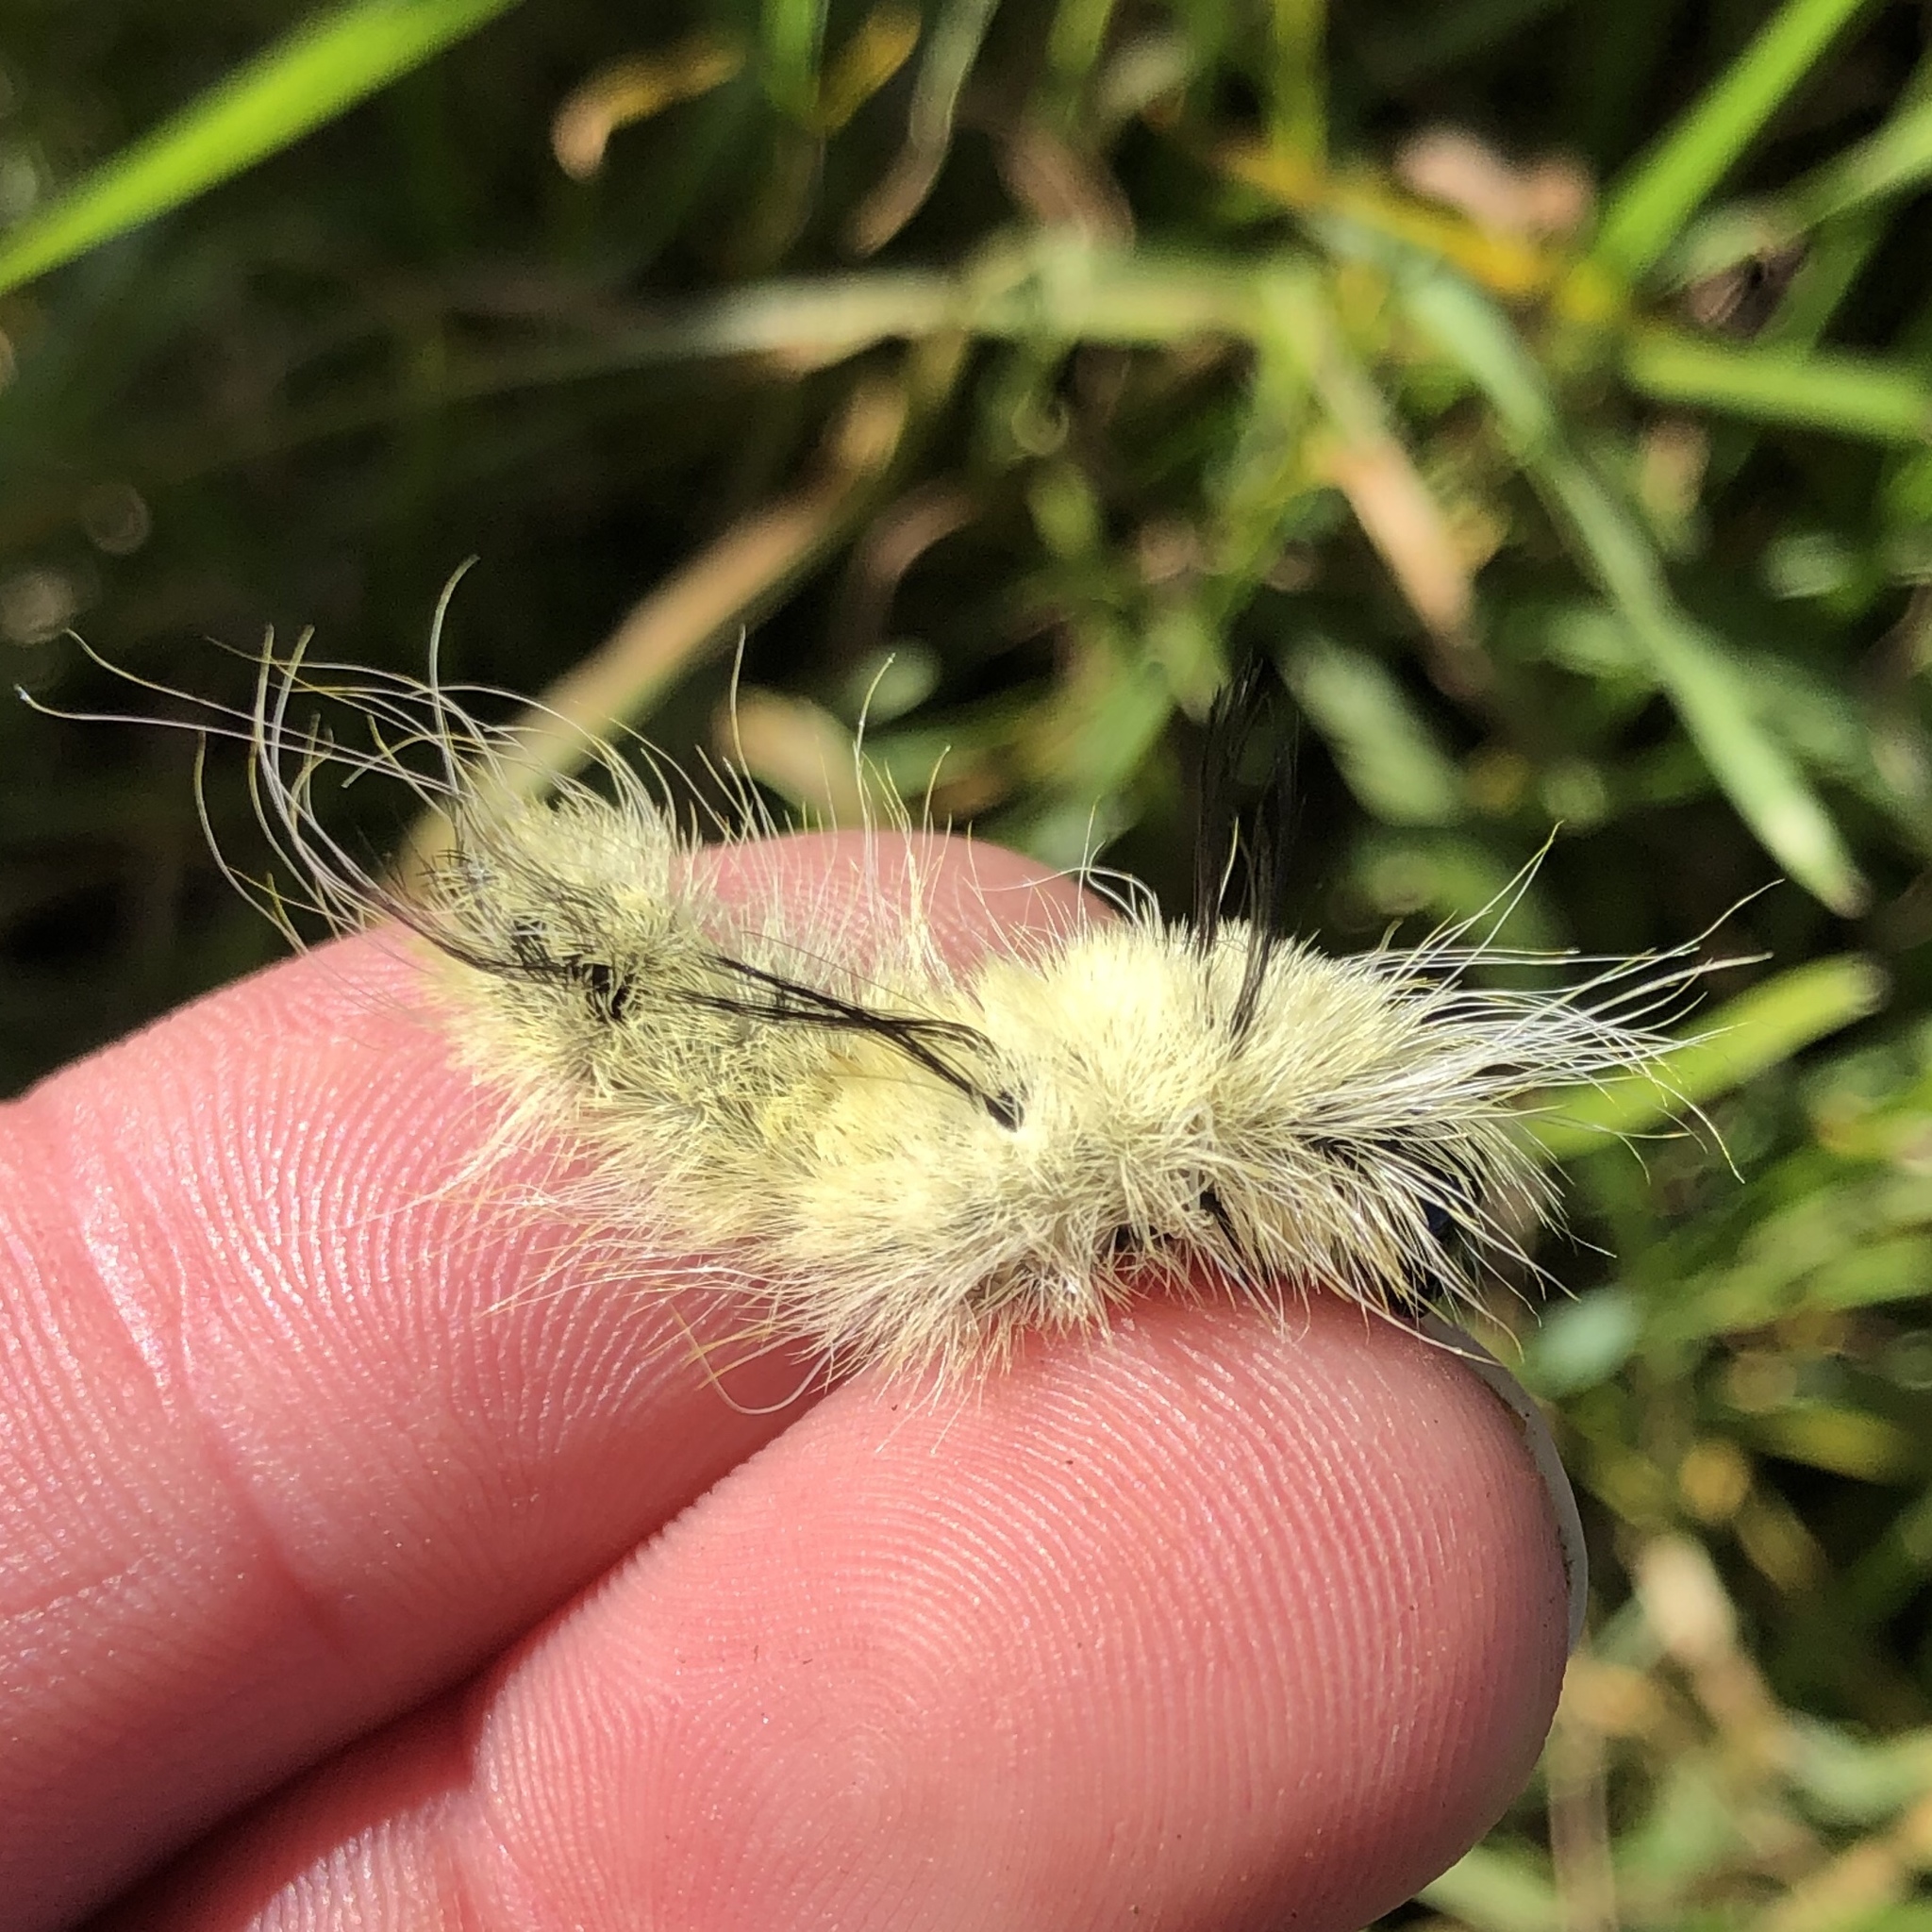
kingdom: Animalia
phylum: Arthropoda
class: Insecta
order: Lepidoptera
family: Noctuidae
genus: Acronicta
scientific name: Acronicta americana
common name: American dagger
